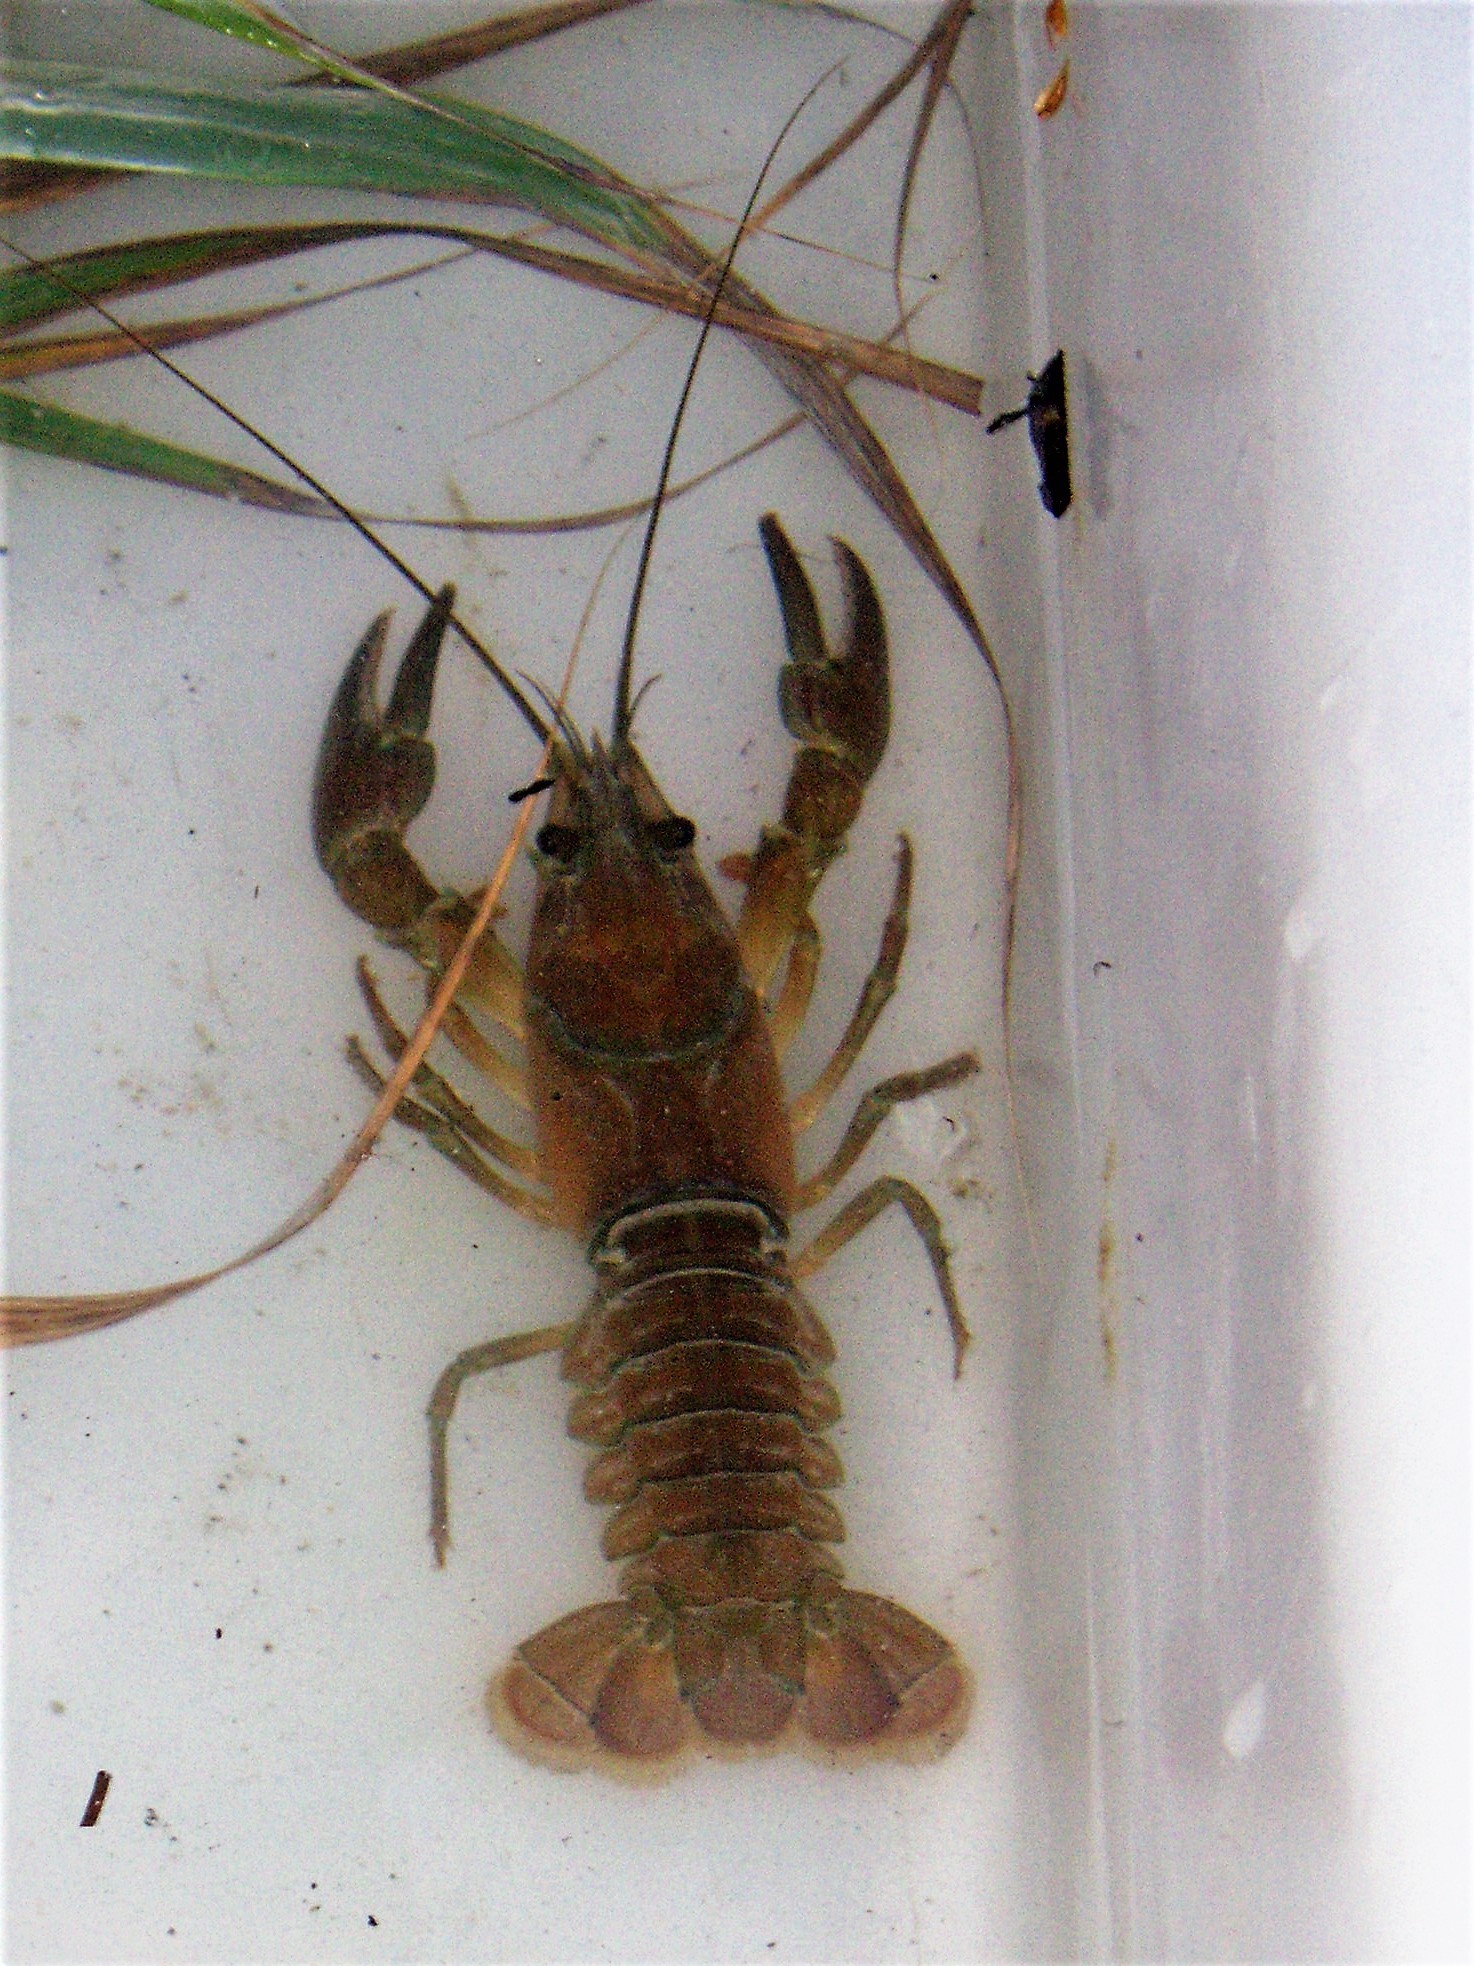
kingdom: Animalia
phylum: Arthropoda
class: Malacostraca
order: Decapoda
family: Astacidae
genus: Pacifastacus
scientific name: Pacifastacus leniusculus
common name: Signal crayfish
